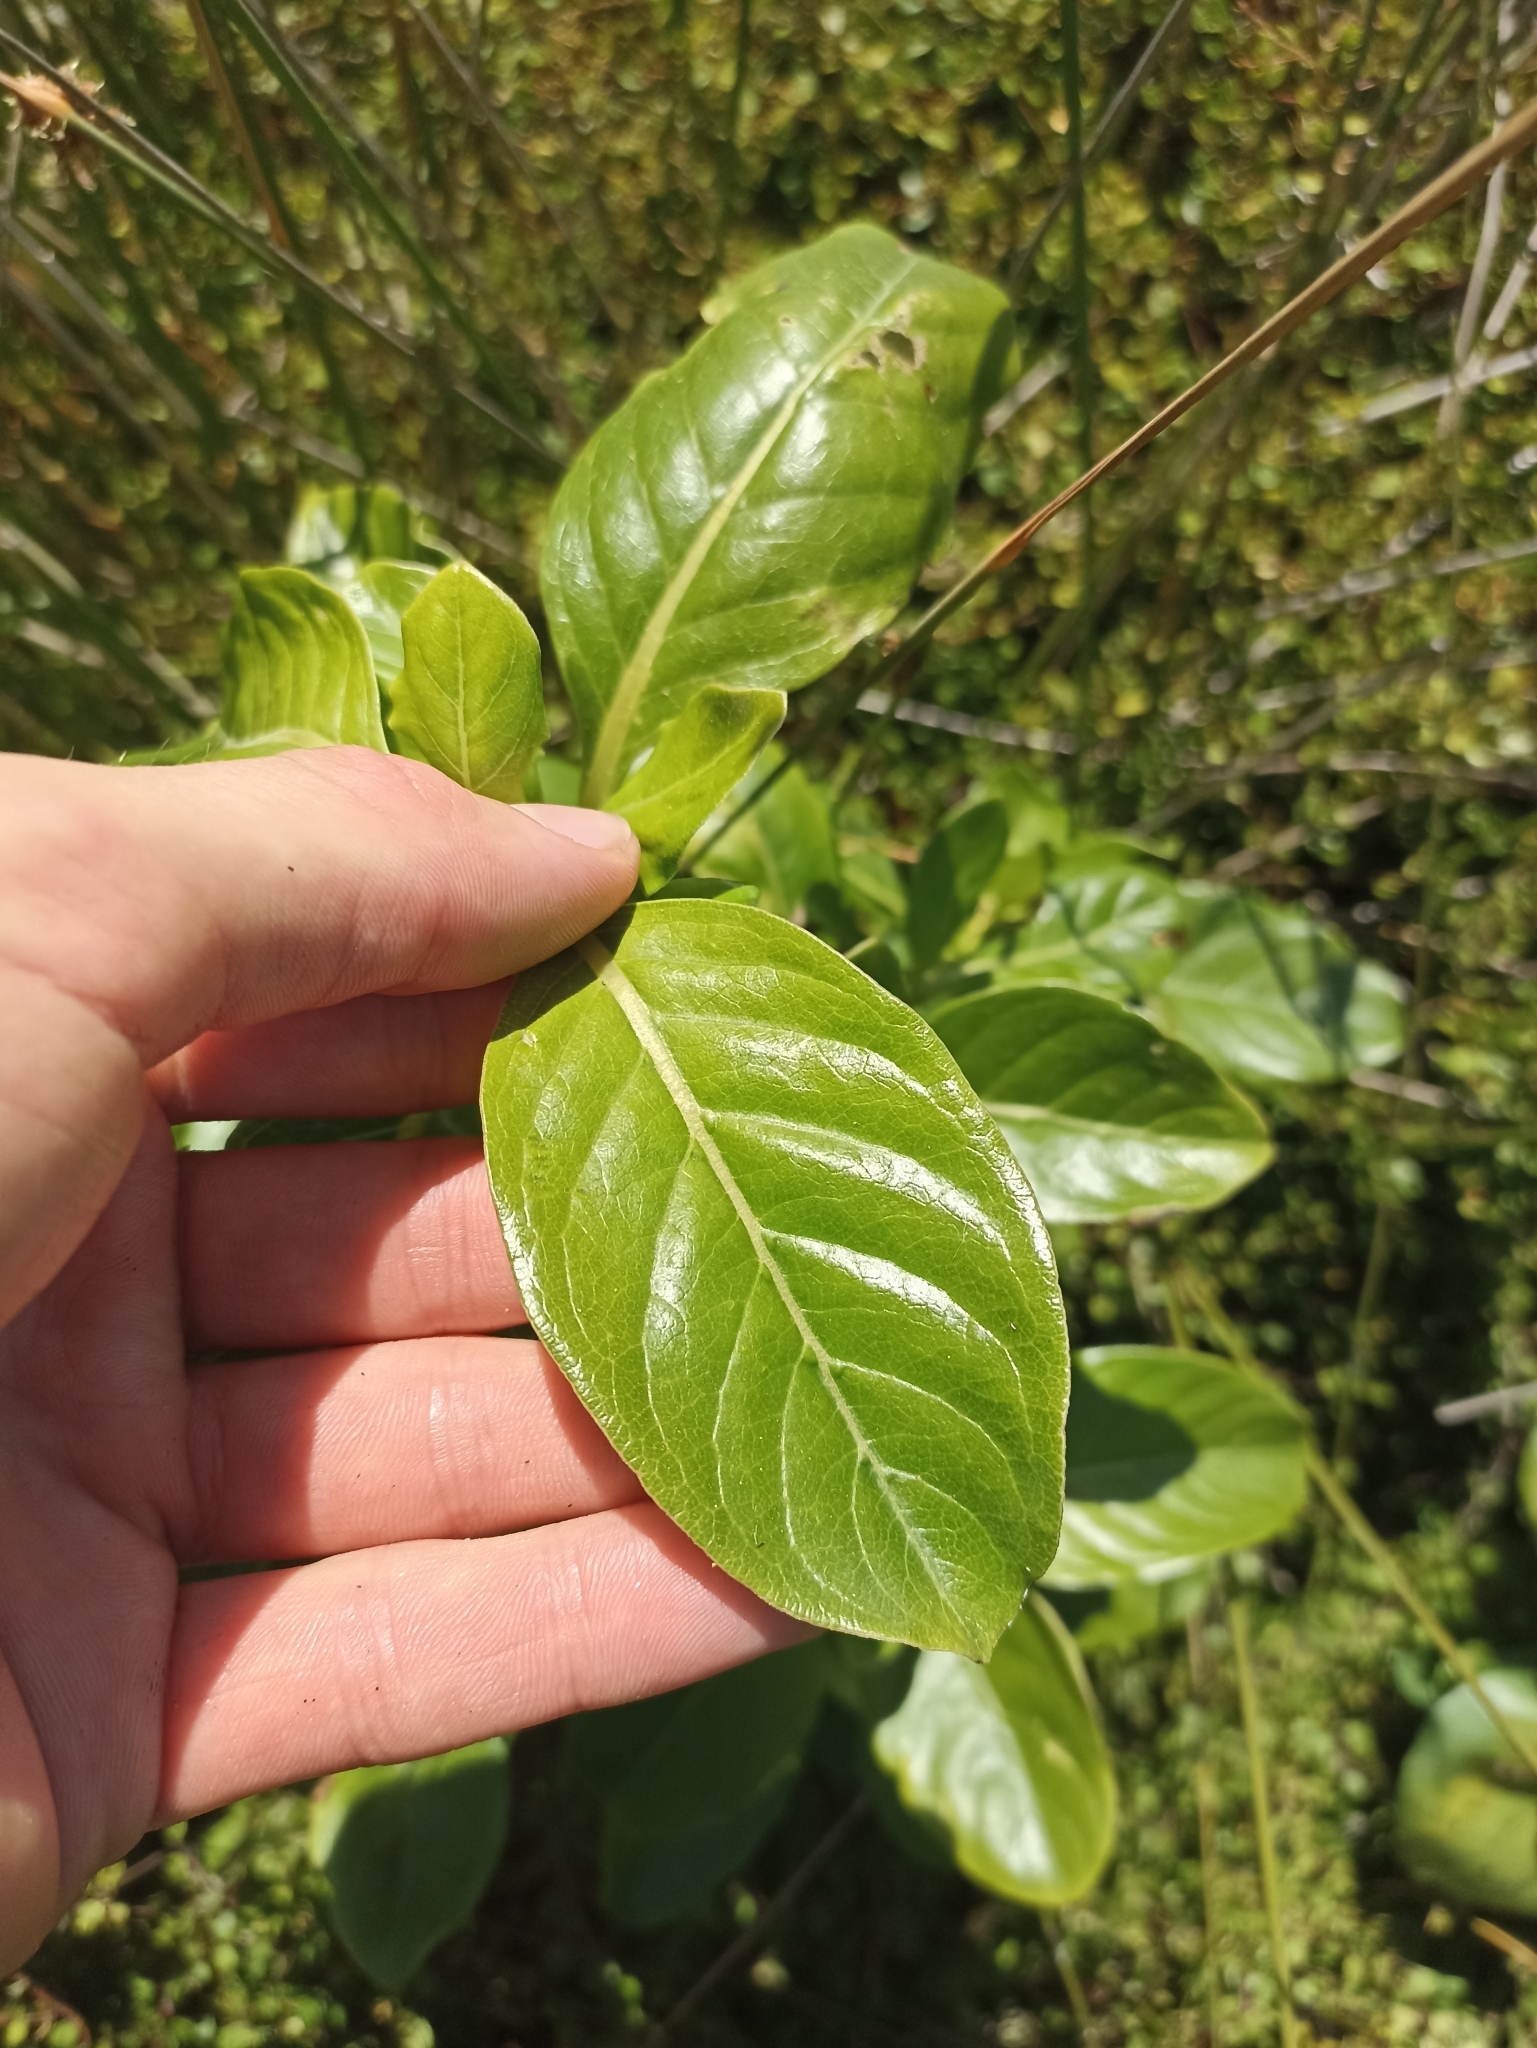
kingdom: Plantae
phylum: Tracheophyta
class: Magnoliopsida
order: Gentianales
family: Rubiaceae
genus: Coprosma
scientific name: Coprosma macrocarpa
